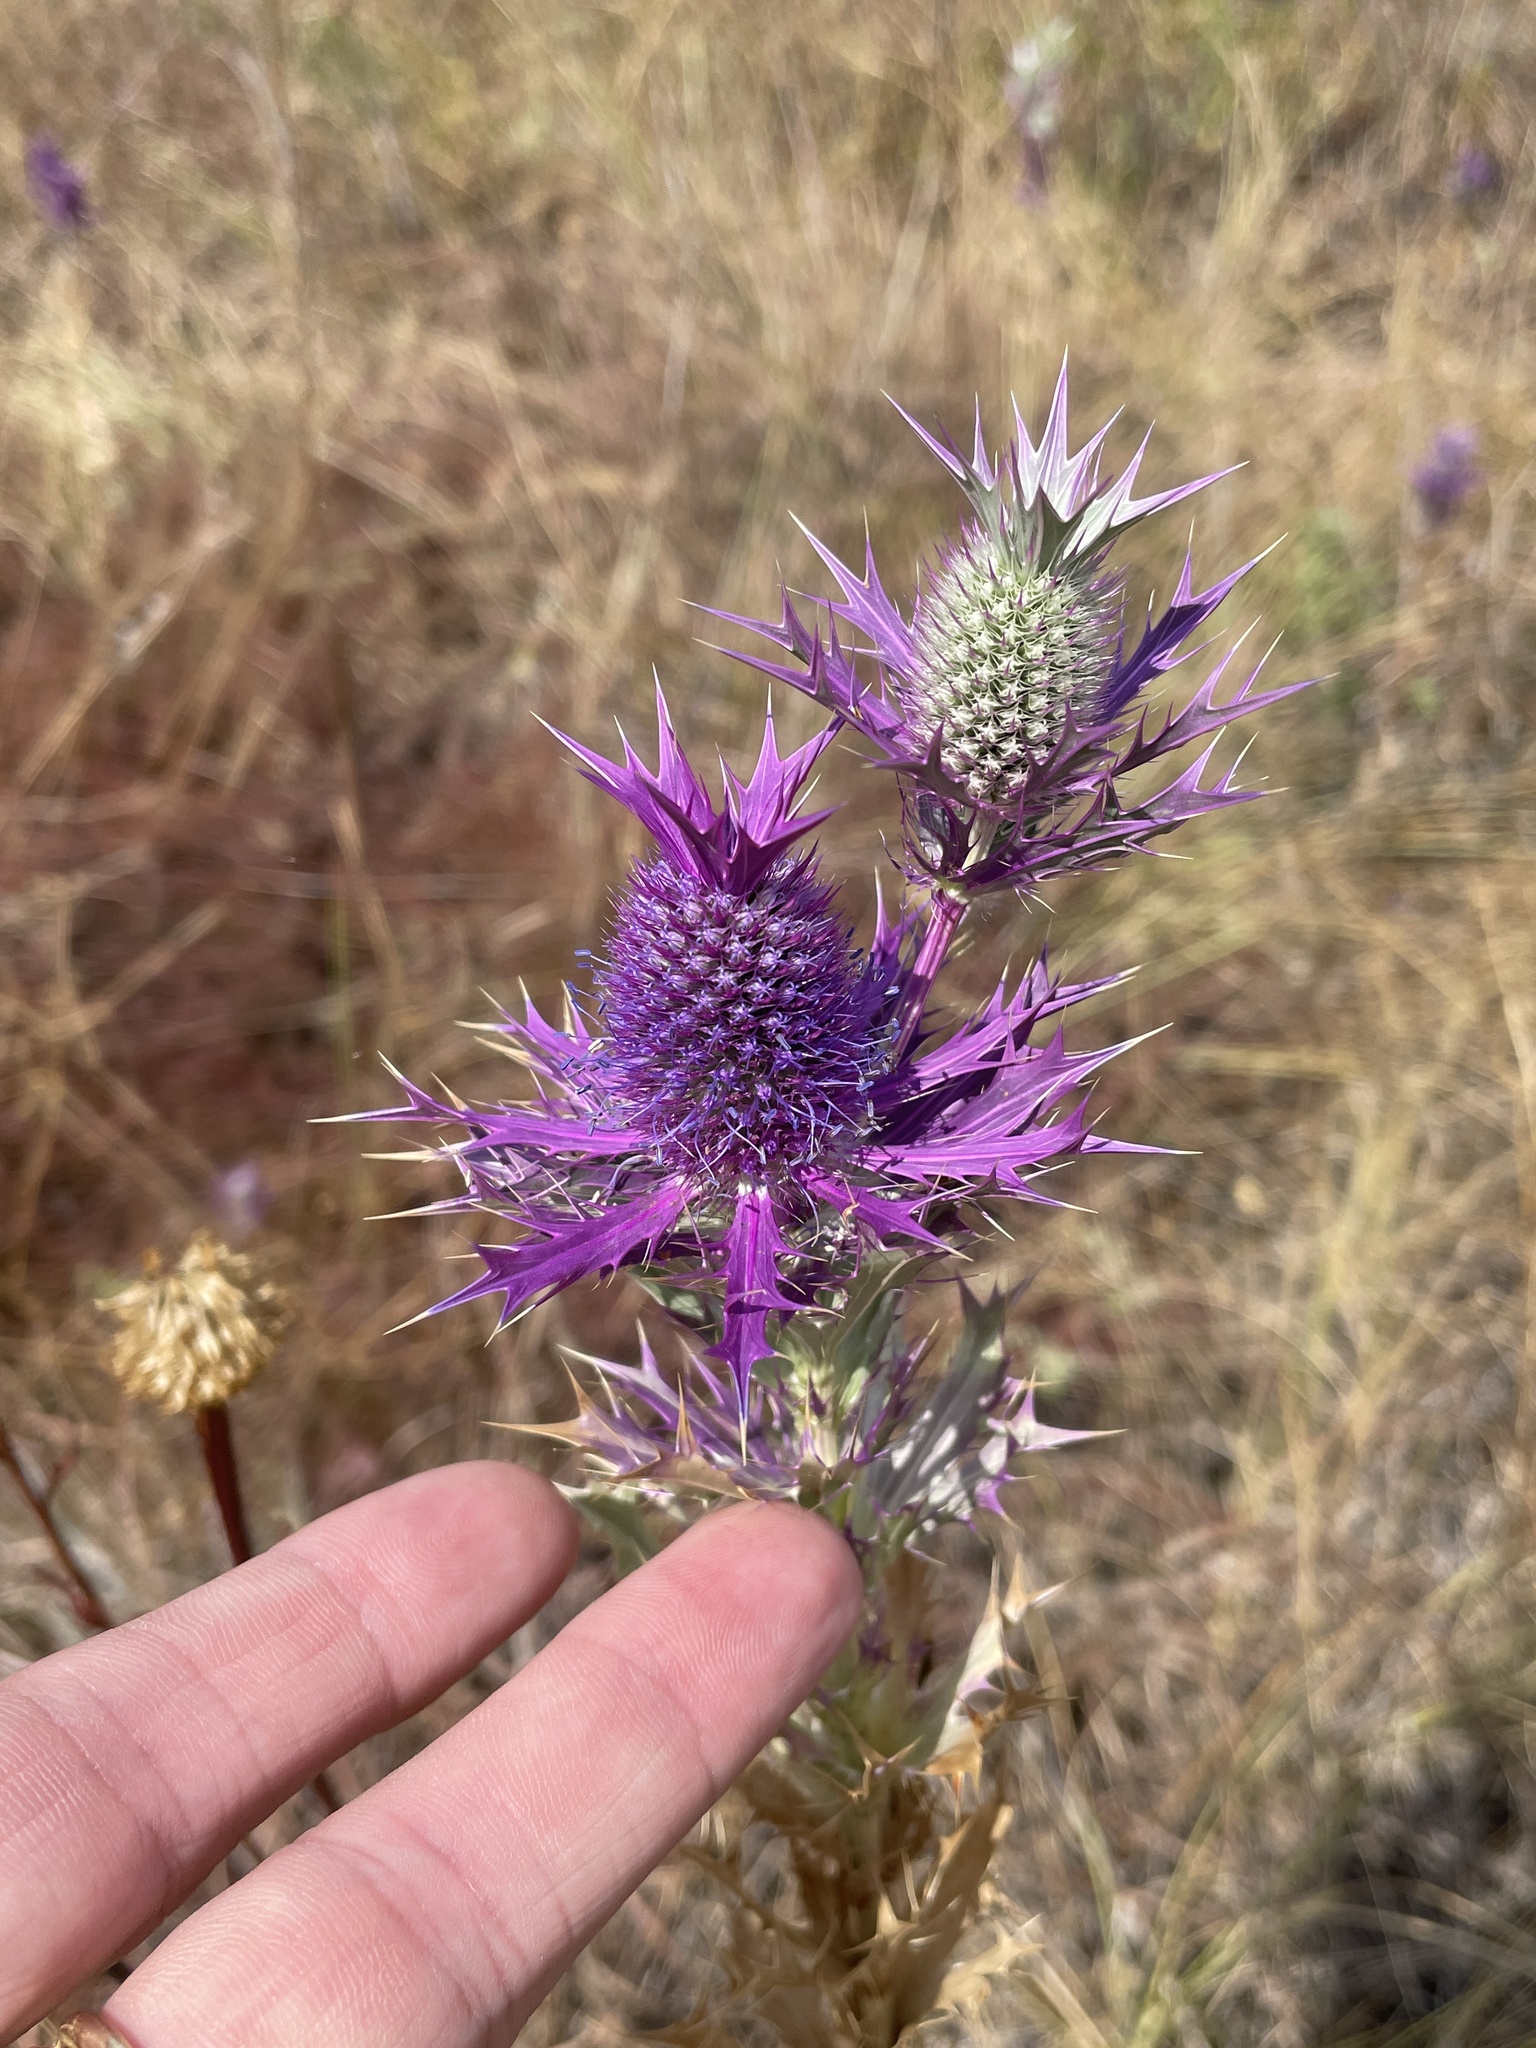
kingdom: Plantae
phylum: Tracheophyta
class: Magnoliopsida
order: Apiales
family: Apiaceae
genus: Eryngium
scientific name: Eryngium leavenworthii
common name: Leavenworth's eryngo
